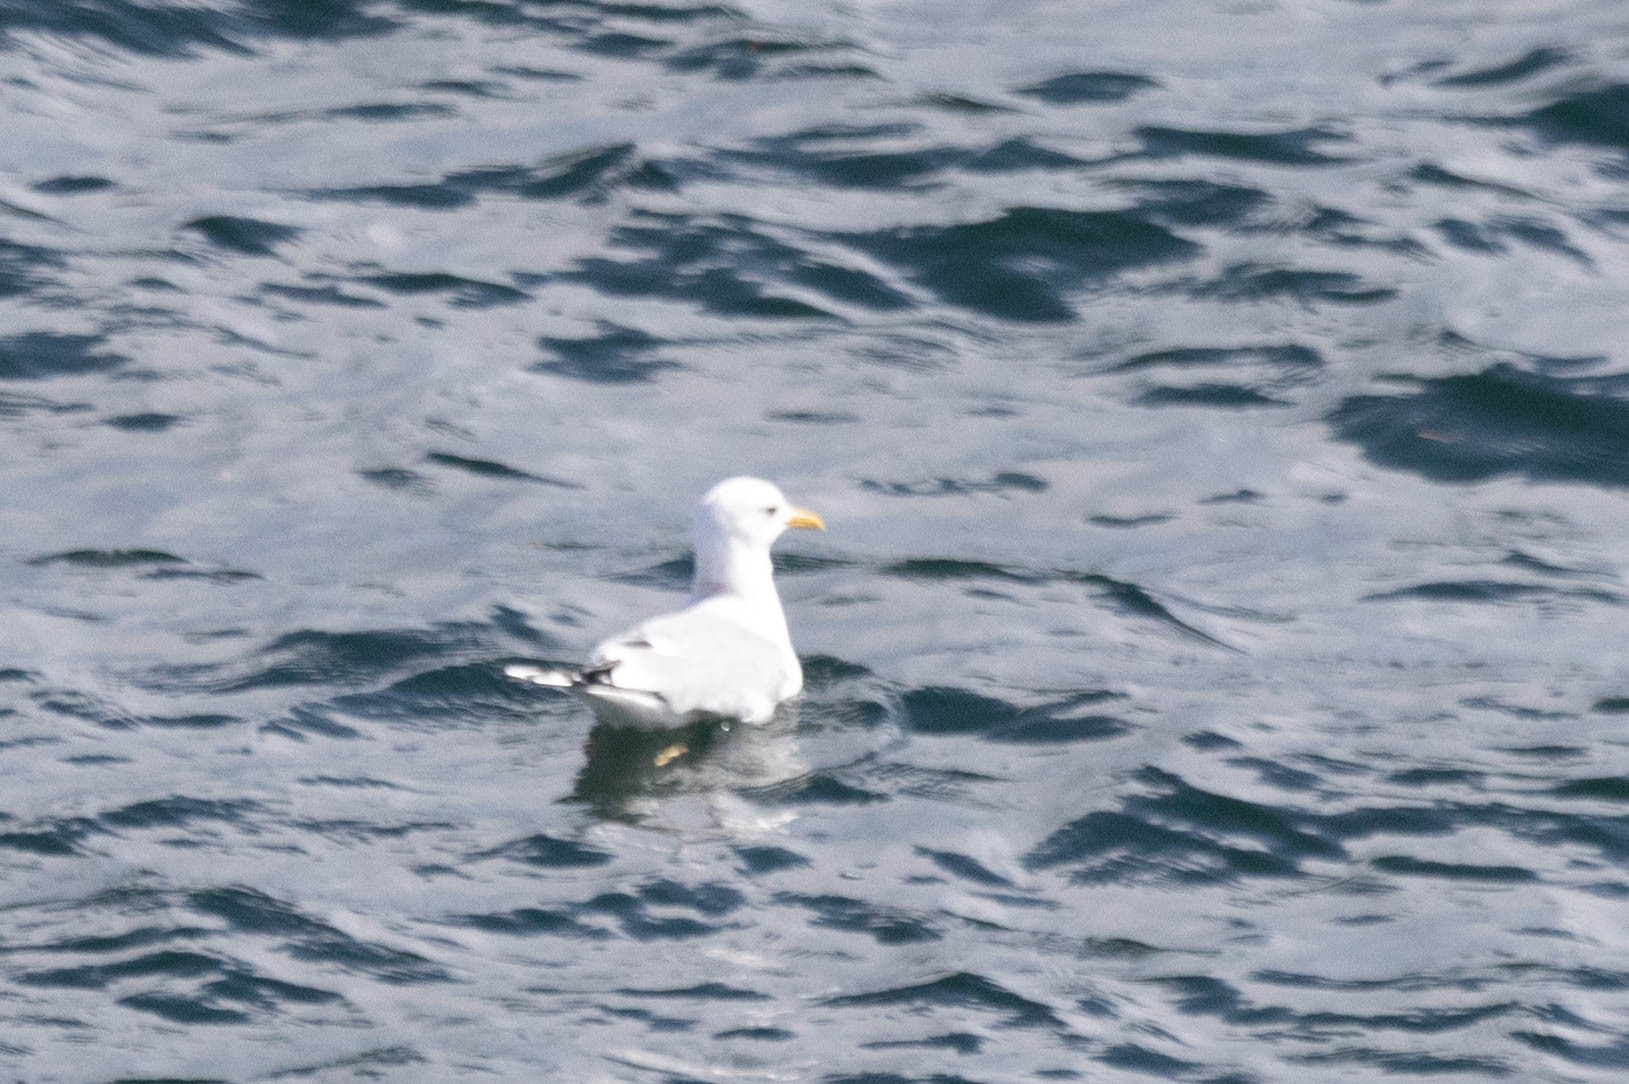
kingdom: Animalia
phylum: Chordata
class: Aves
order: Charadriiformes
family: Laridae
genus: Larus
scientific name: Larus brachyrhynchus
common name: Short-billed gull
